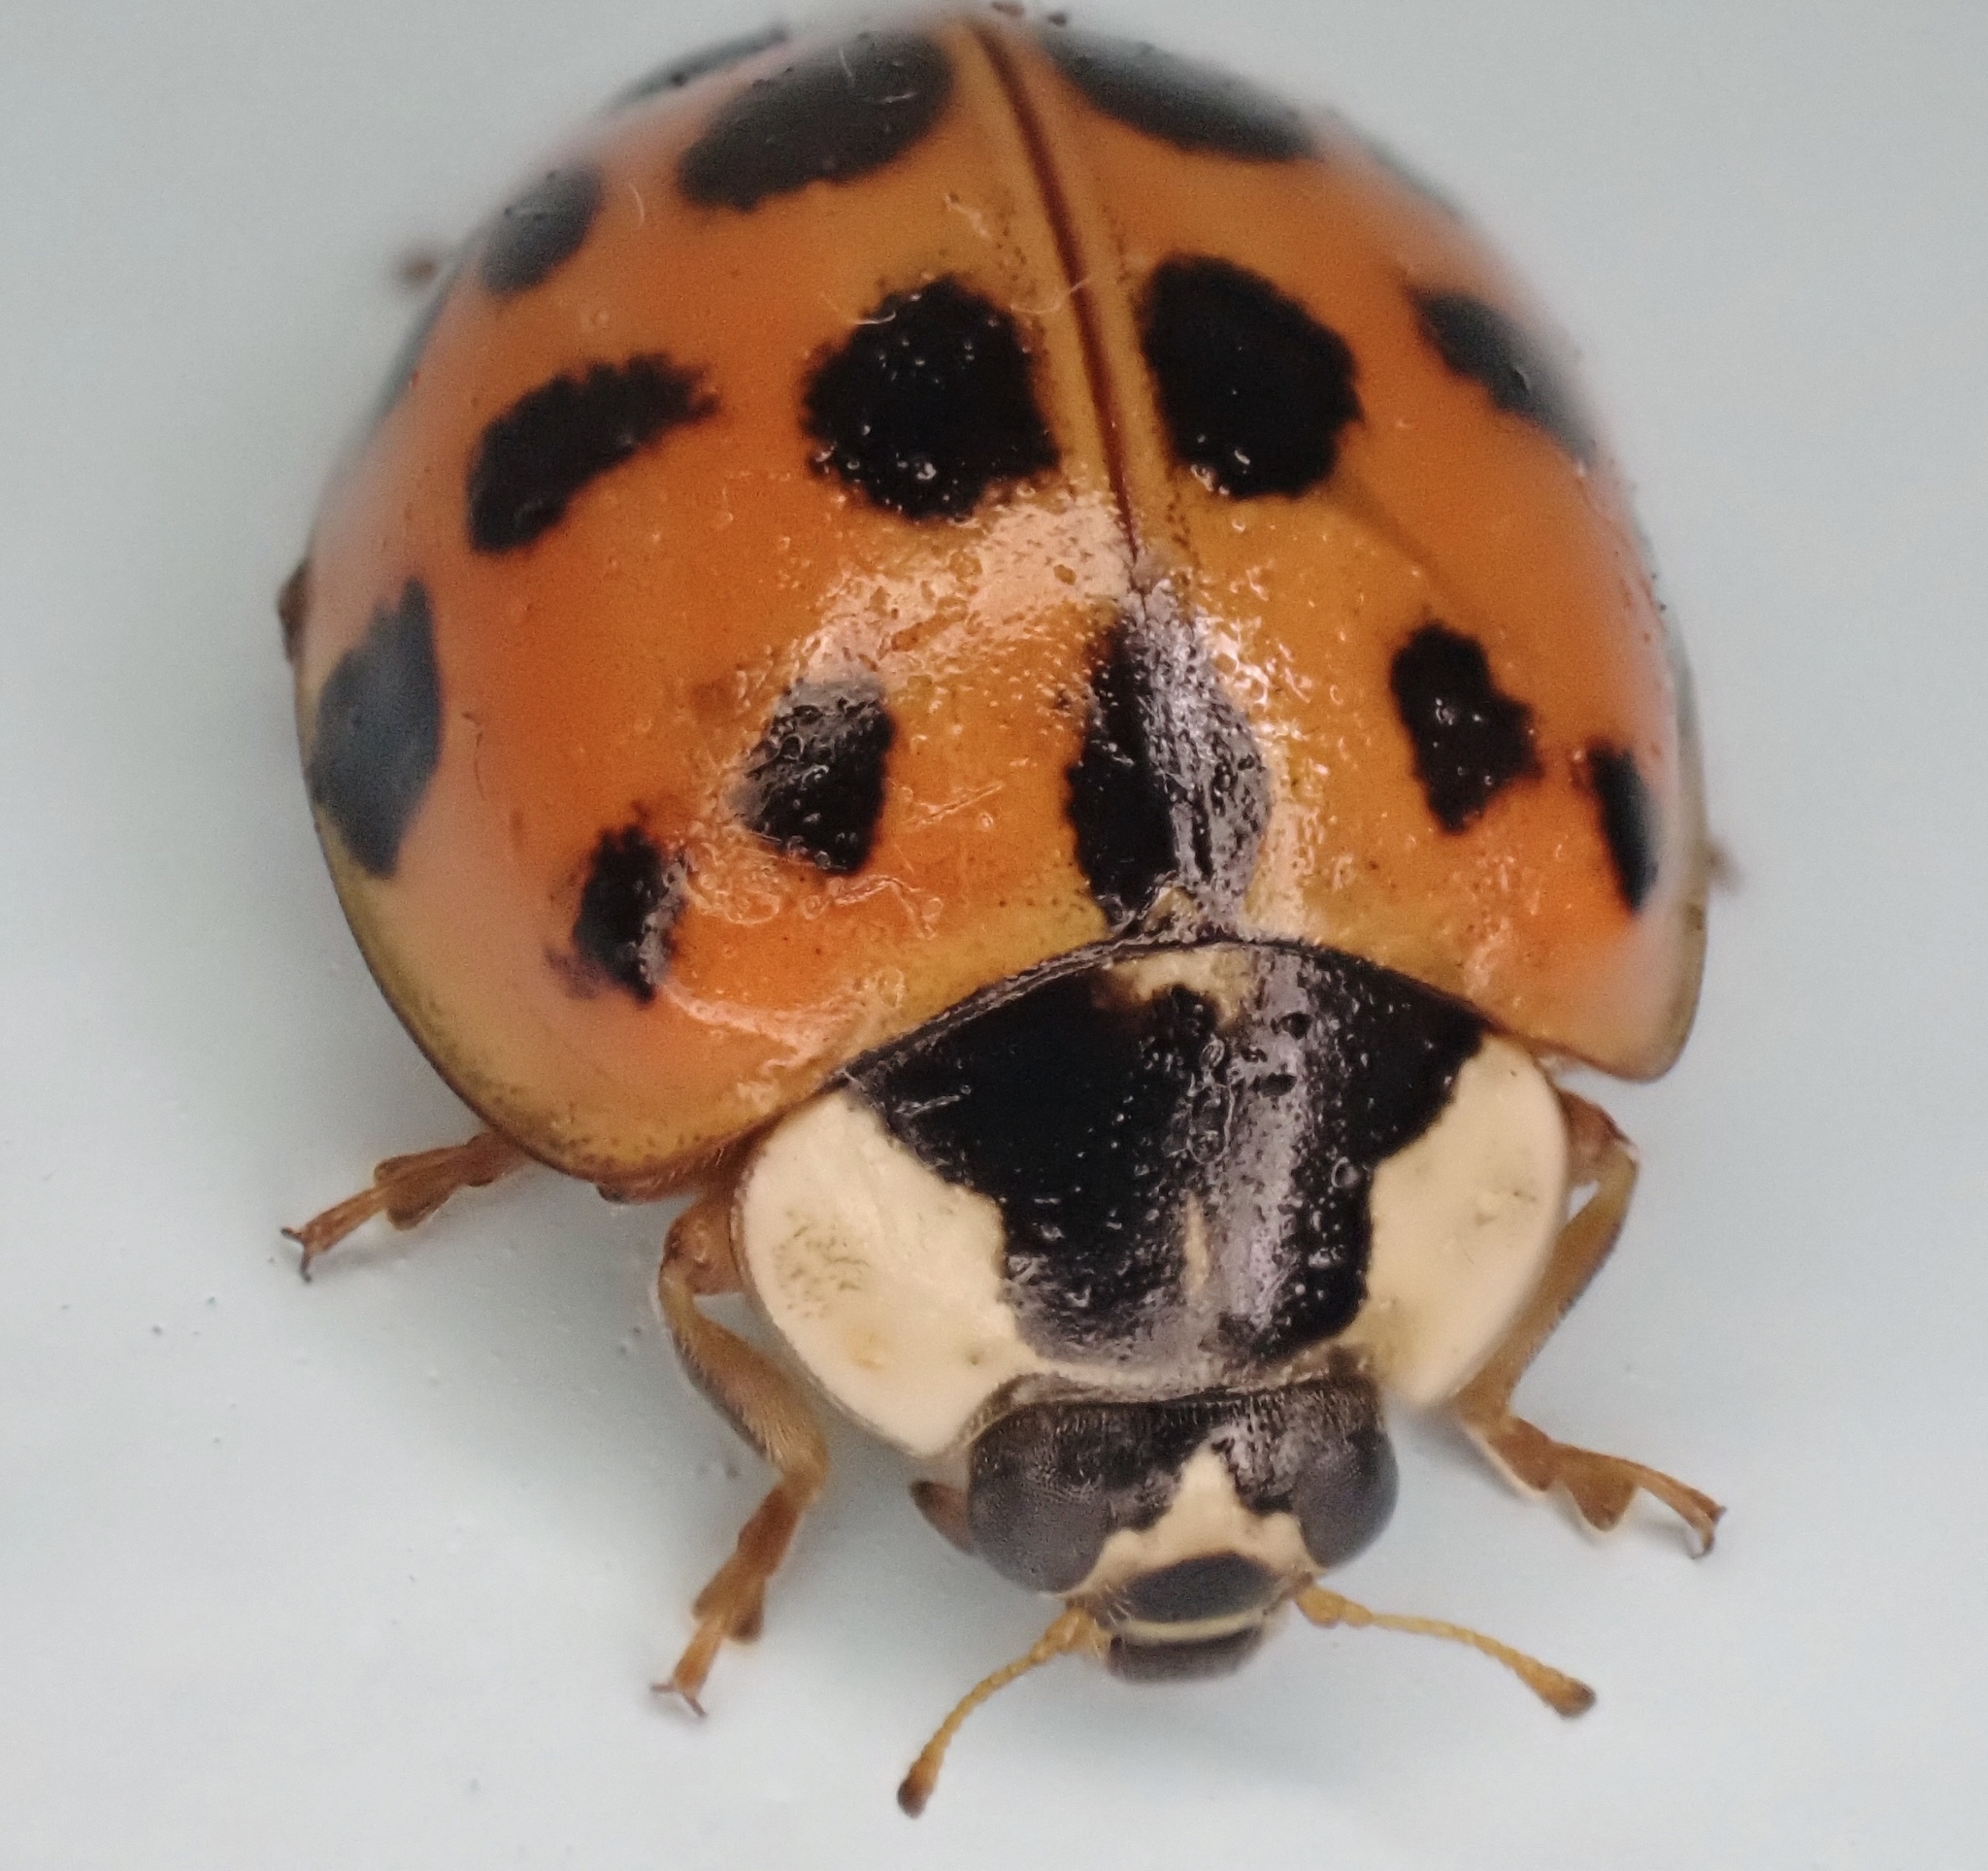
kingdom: Animalia
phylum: Arthropoda
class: Insecta
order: Coleoptera
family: Coccinellidae
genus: Harmonia
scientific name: Harmonia axyridis
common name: Harlequin ladybird
